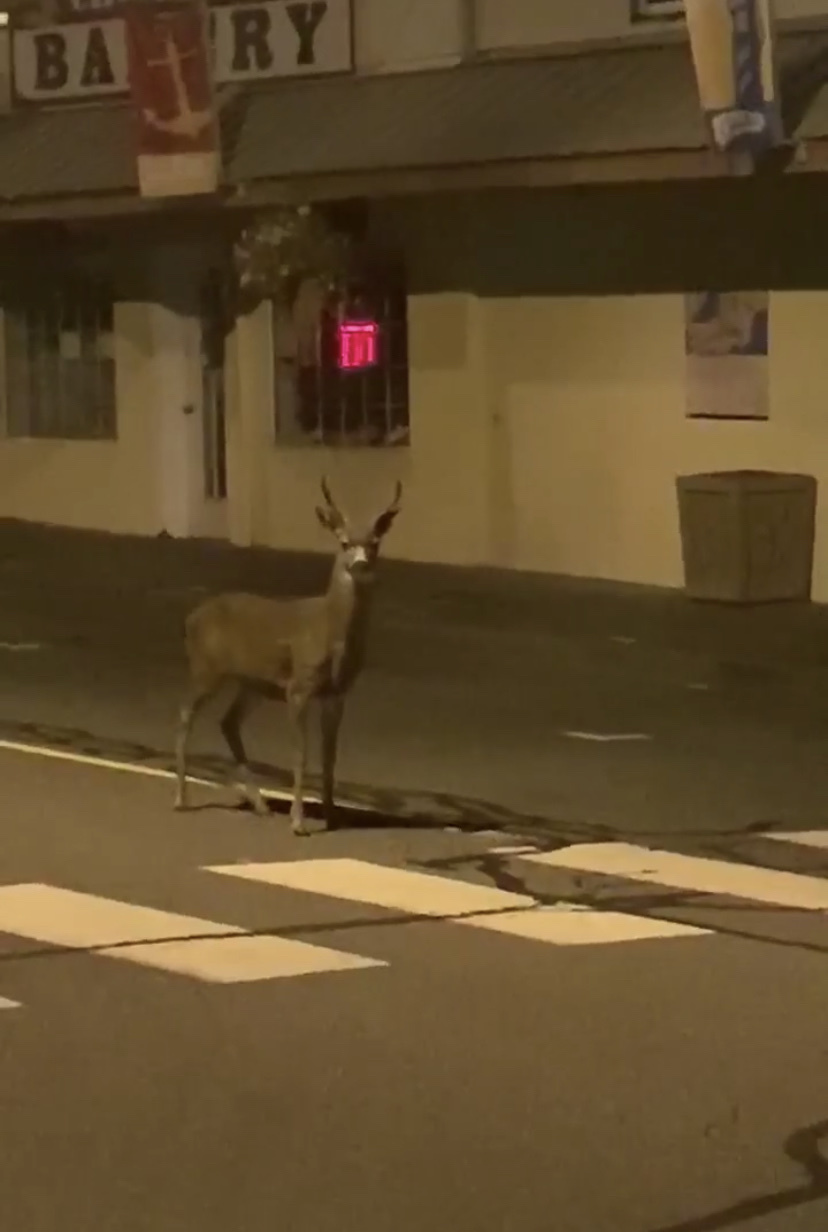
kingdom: Animalia
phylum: Chordata
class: Mammalia
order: Artiodactyla
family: Cervidae
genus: Odocoileus
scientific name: Odocoileus hemionus
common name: Mule deer
